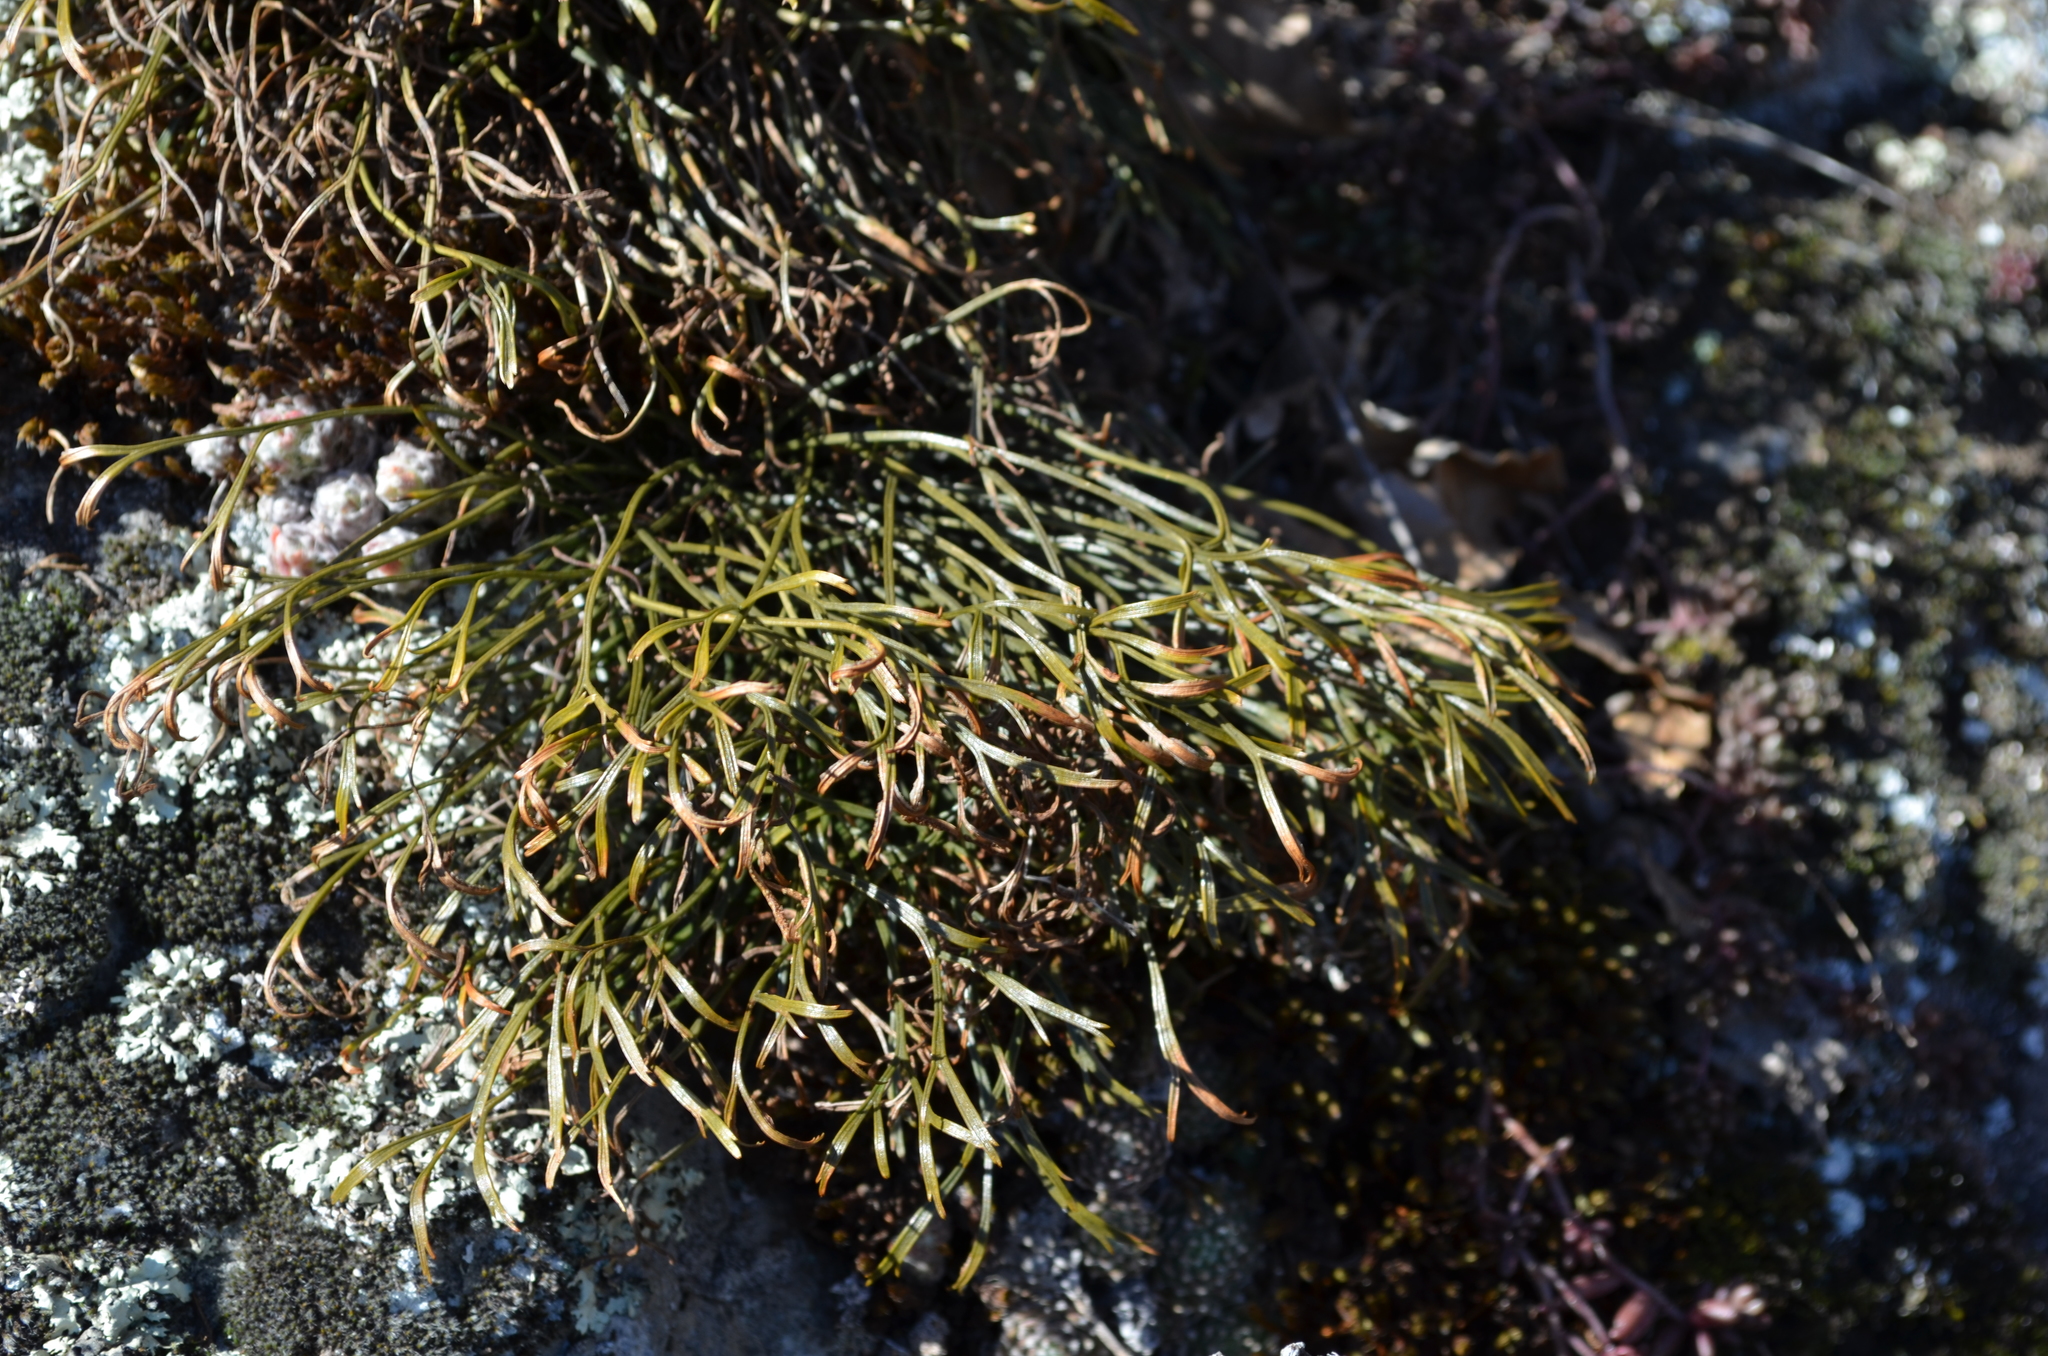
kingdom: Plantae
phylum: Tracheophyta
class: Polypodiopsida
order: Polypodiales
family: Aspleniaceae
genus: Asplenium
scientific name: Asplenium septentrionale
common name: Forked spleenwort
